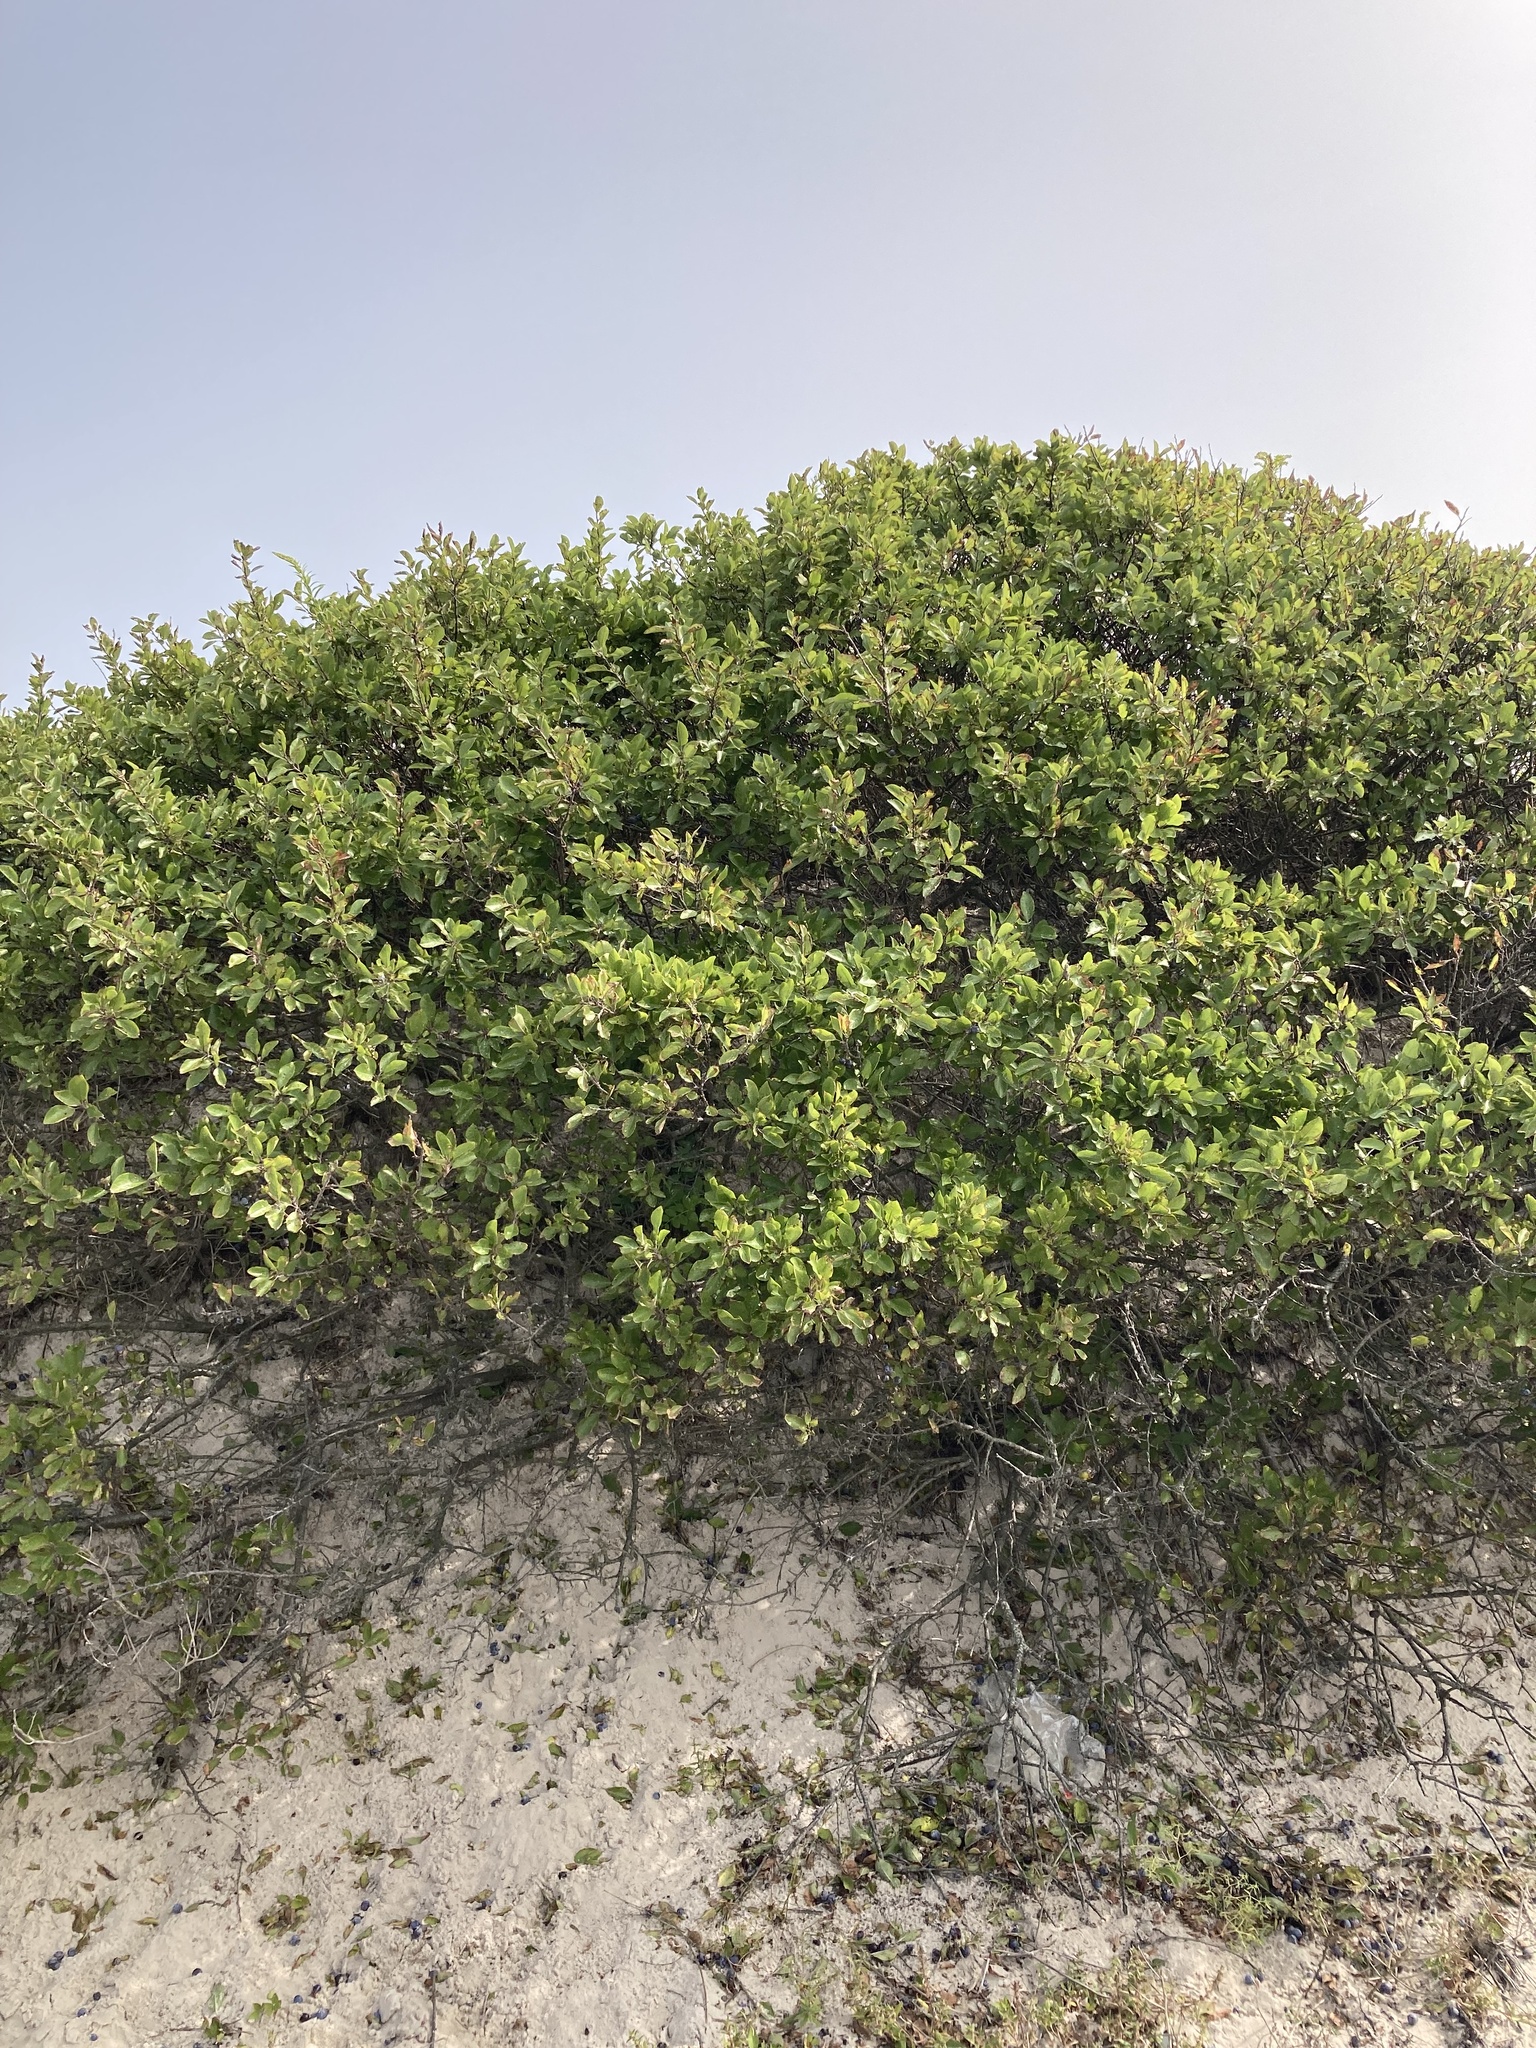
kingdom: Plantae
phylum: Tracheophyta
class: Magnoliopsida
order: Rosales
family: Rosaceae
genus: Prunus
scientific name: Prunus maritima
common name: Beach plum
